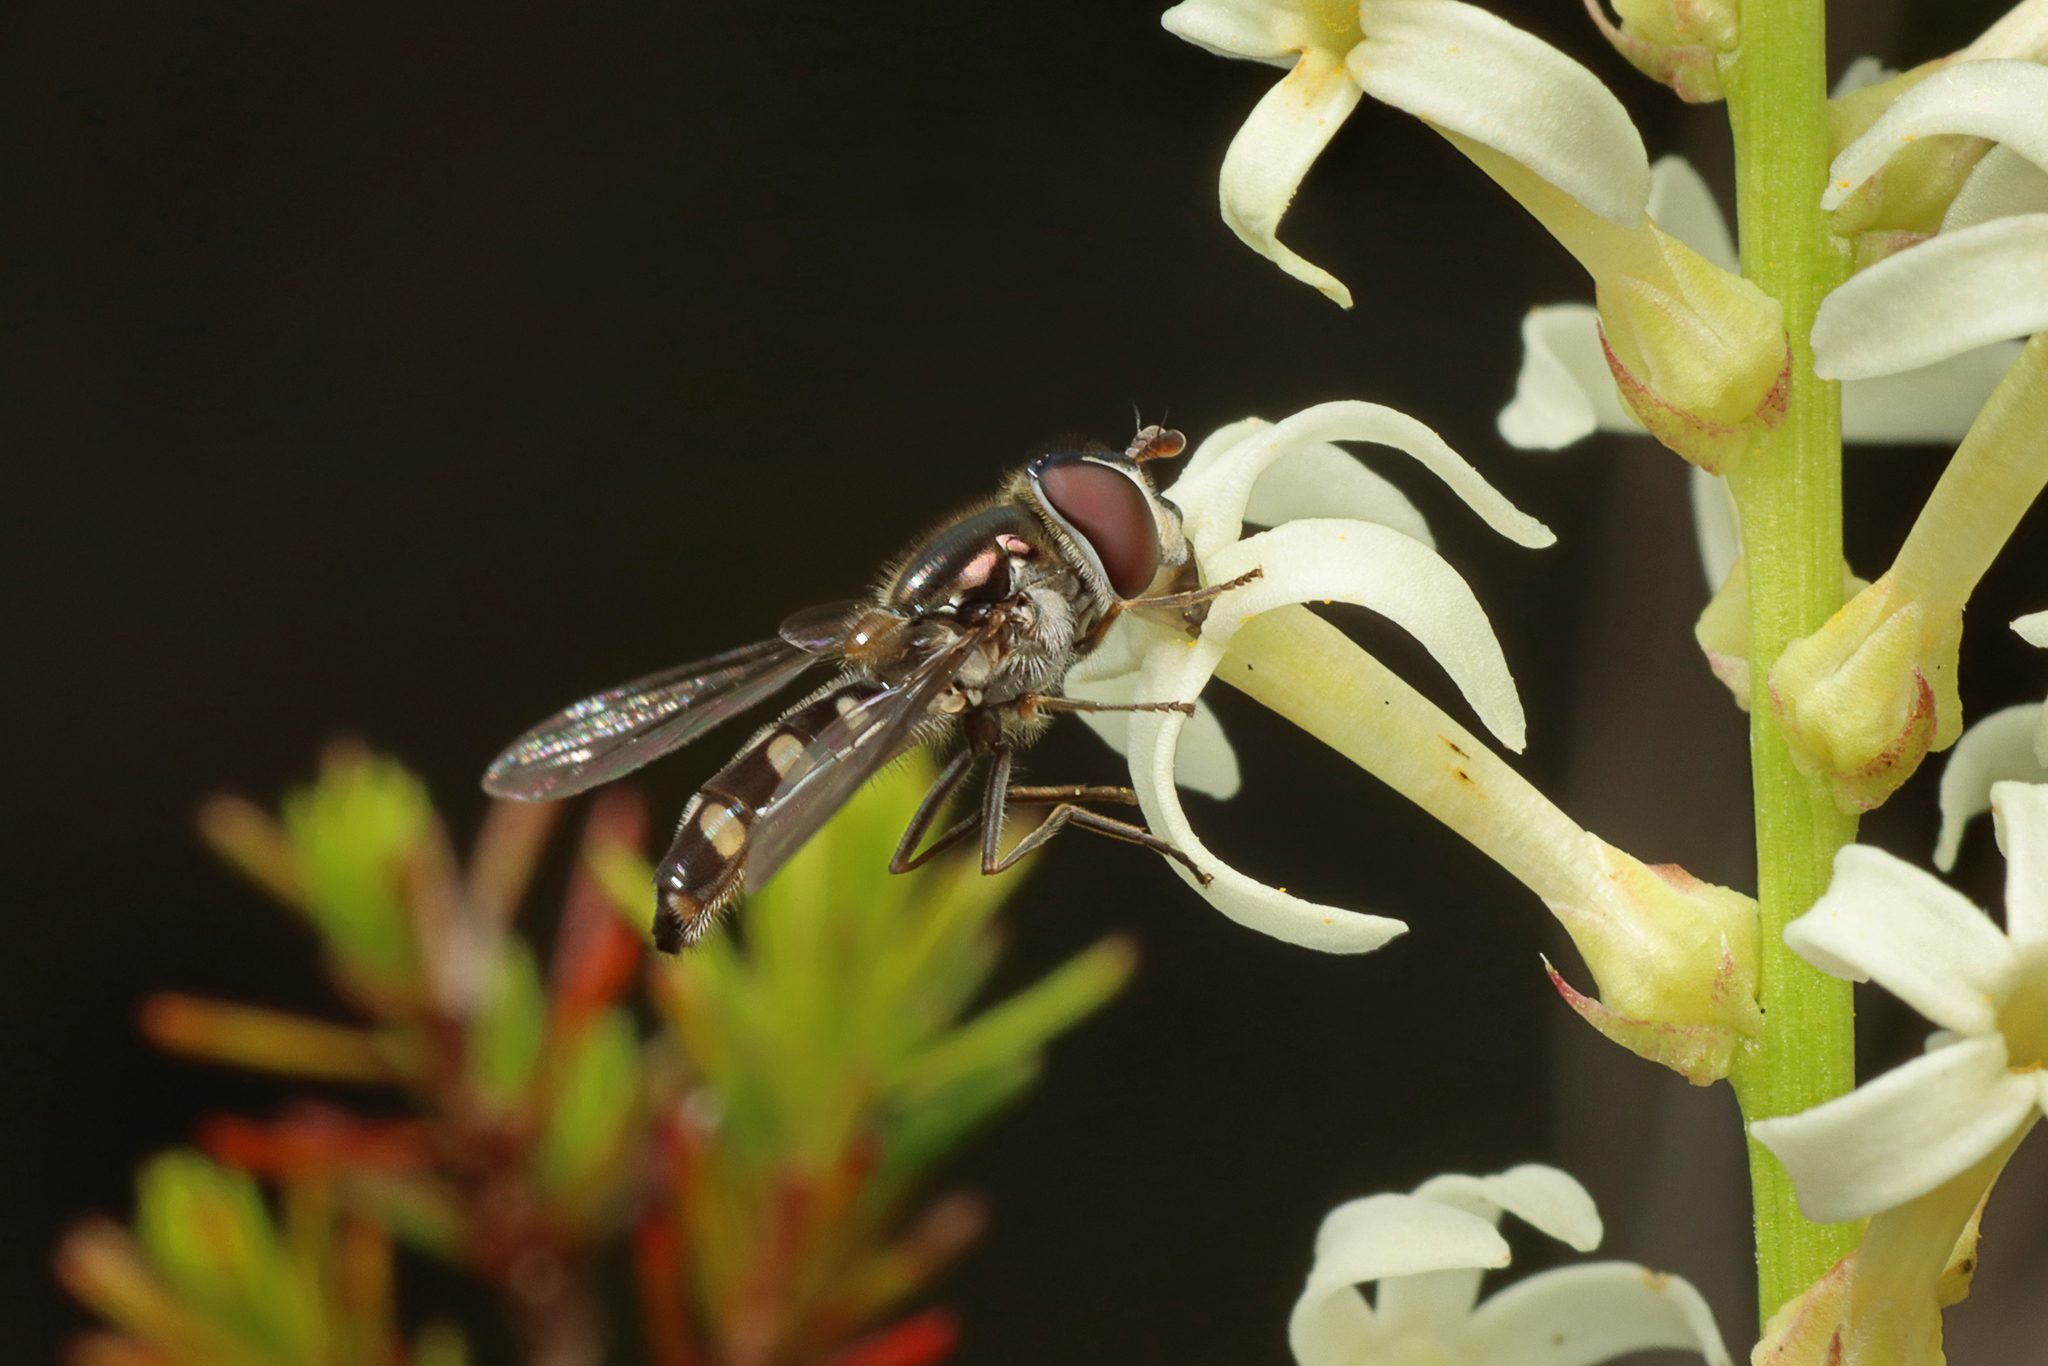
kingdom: Animalia
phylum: Arthropoda
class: Insecta
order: Diptera
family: Syrphidae
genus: Melangyna
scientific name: Melangyna viridiceps
